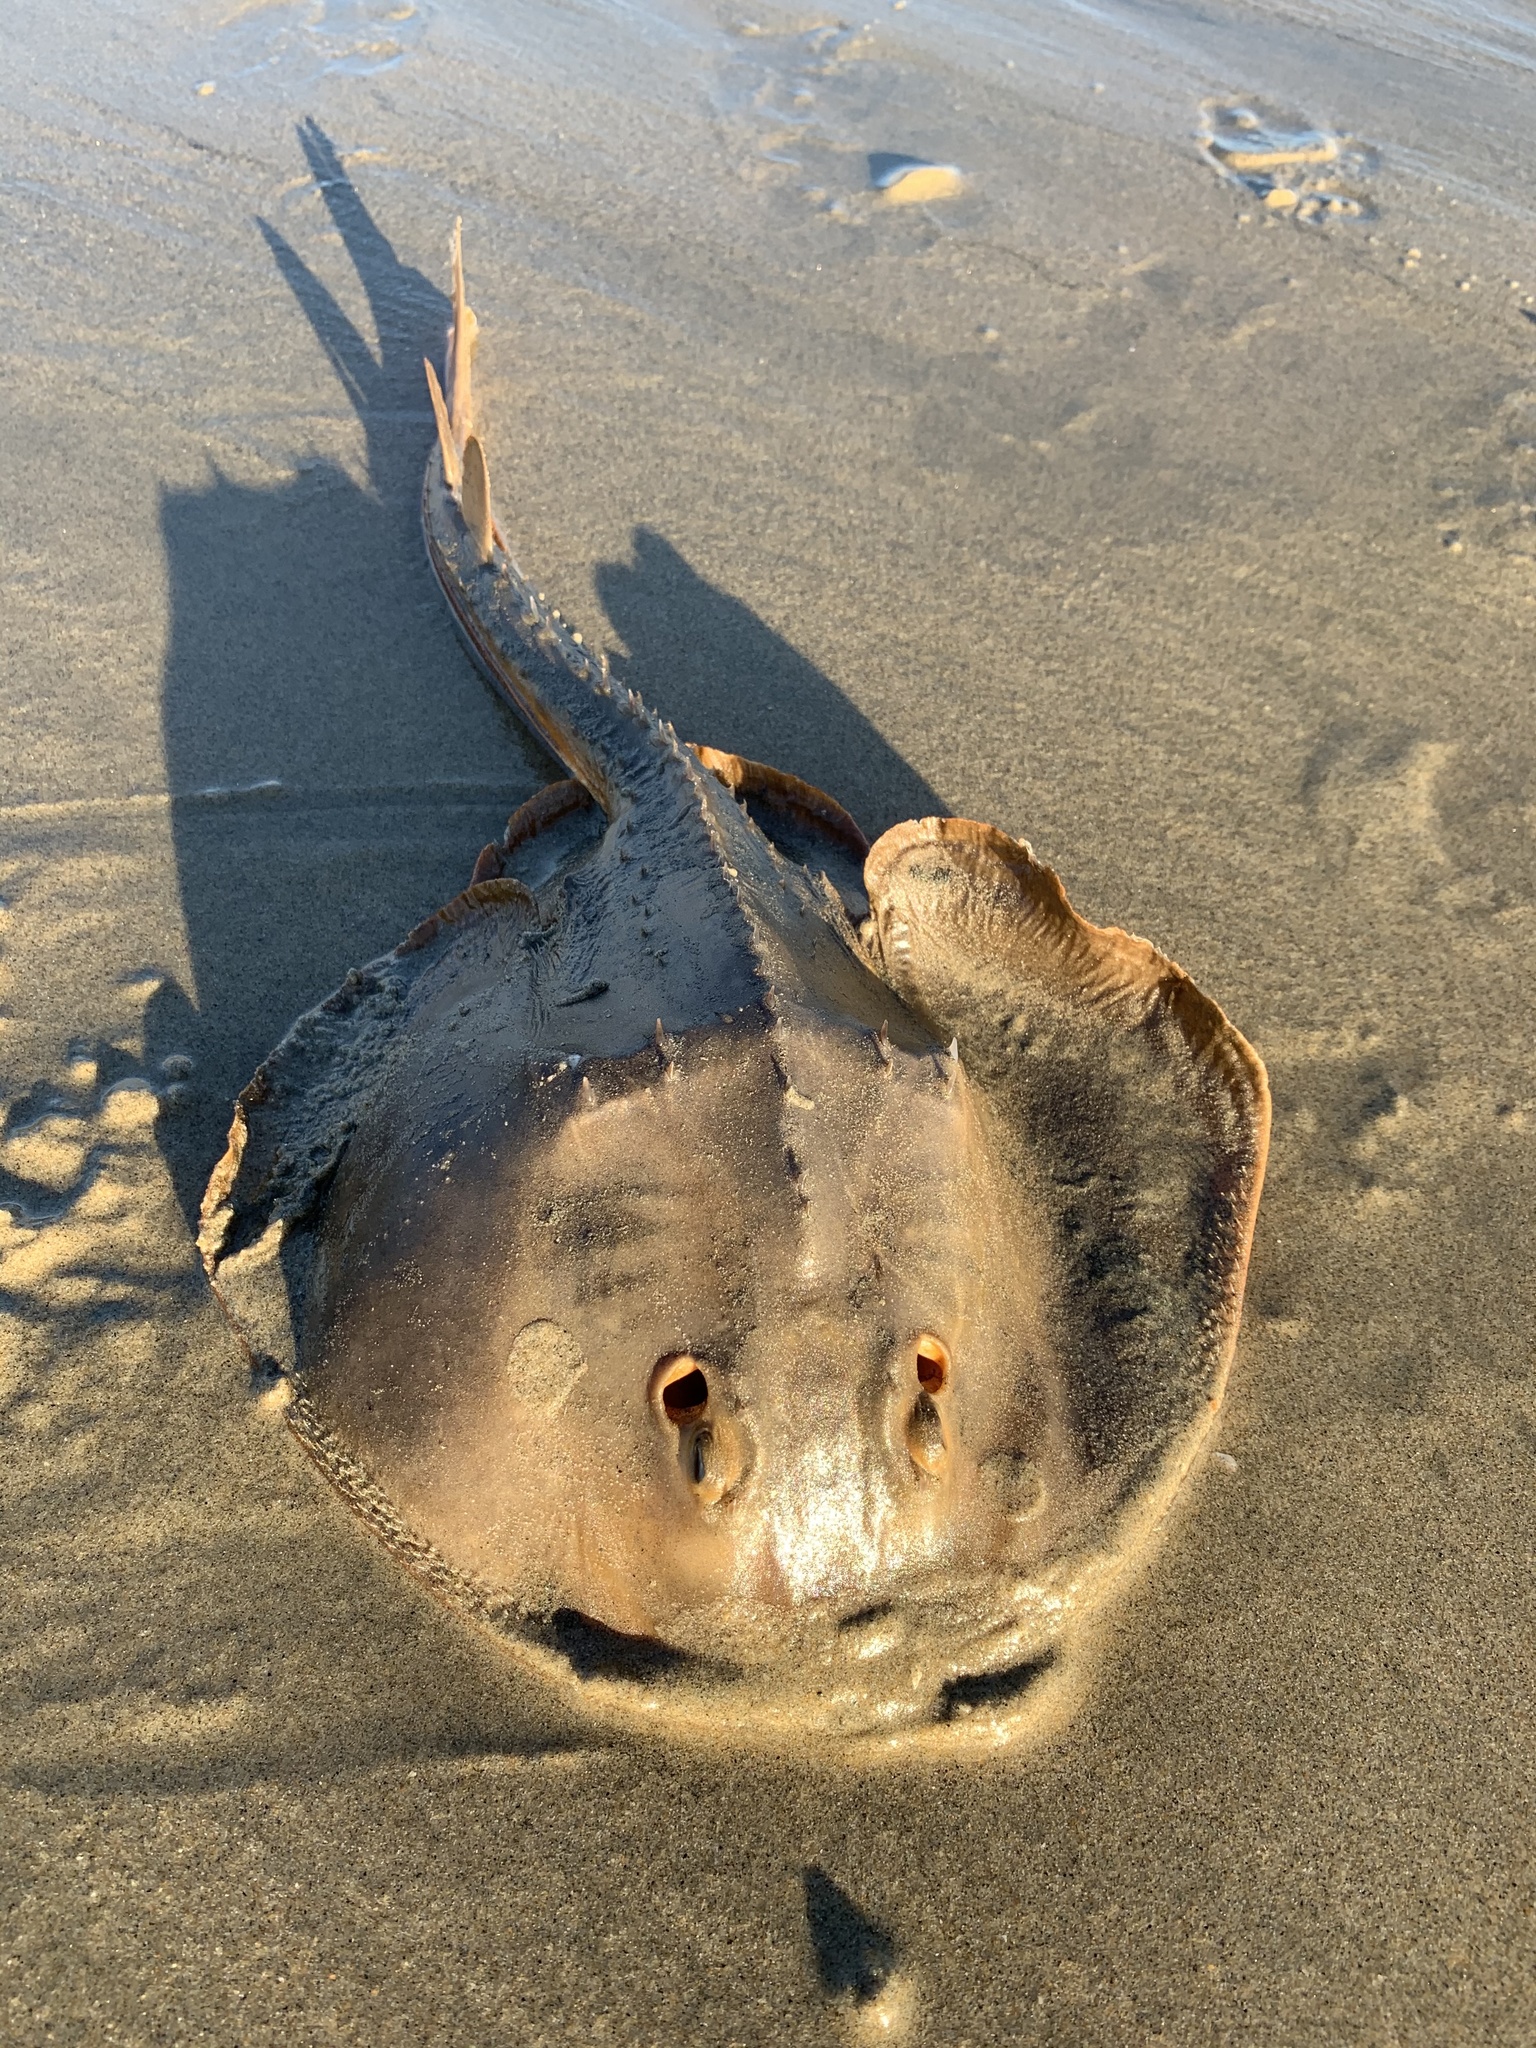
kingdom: Animalia
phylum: Chordata
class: Elasmobranchii
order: Rhinopristiformes
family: Rhinobatidae
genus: Platyrhinoidis
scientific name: Platyrhinoidis triseriata
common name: Thornback
